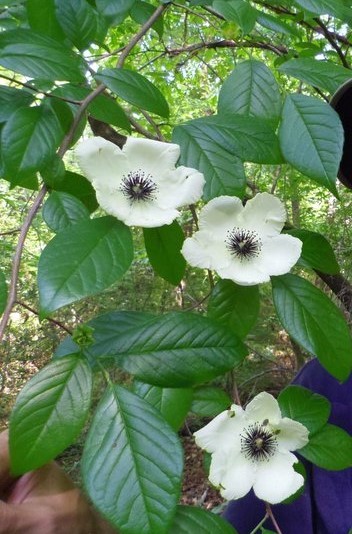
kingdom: Plantae
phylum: Tracheophyta
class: Magnoliopsida
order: Ericales
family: Theaceae
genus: Stewartia
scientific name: Stewartia malacodendron
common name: Virginia stewartia
